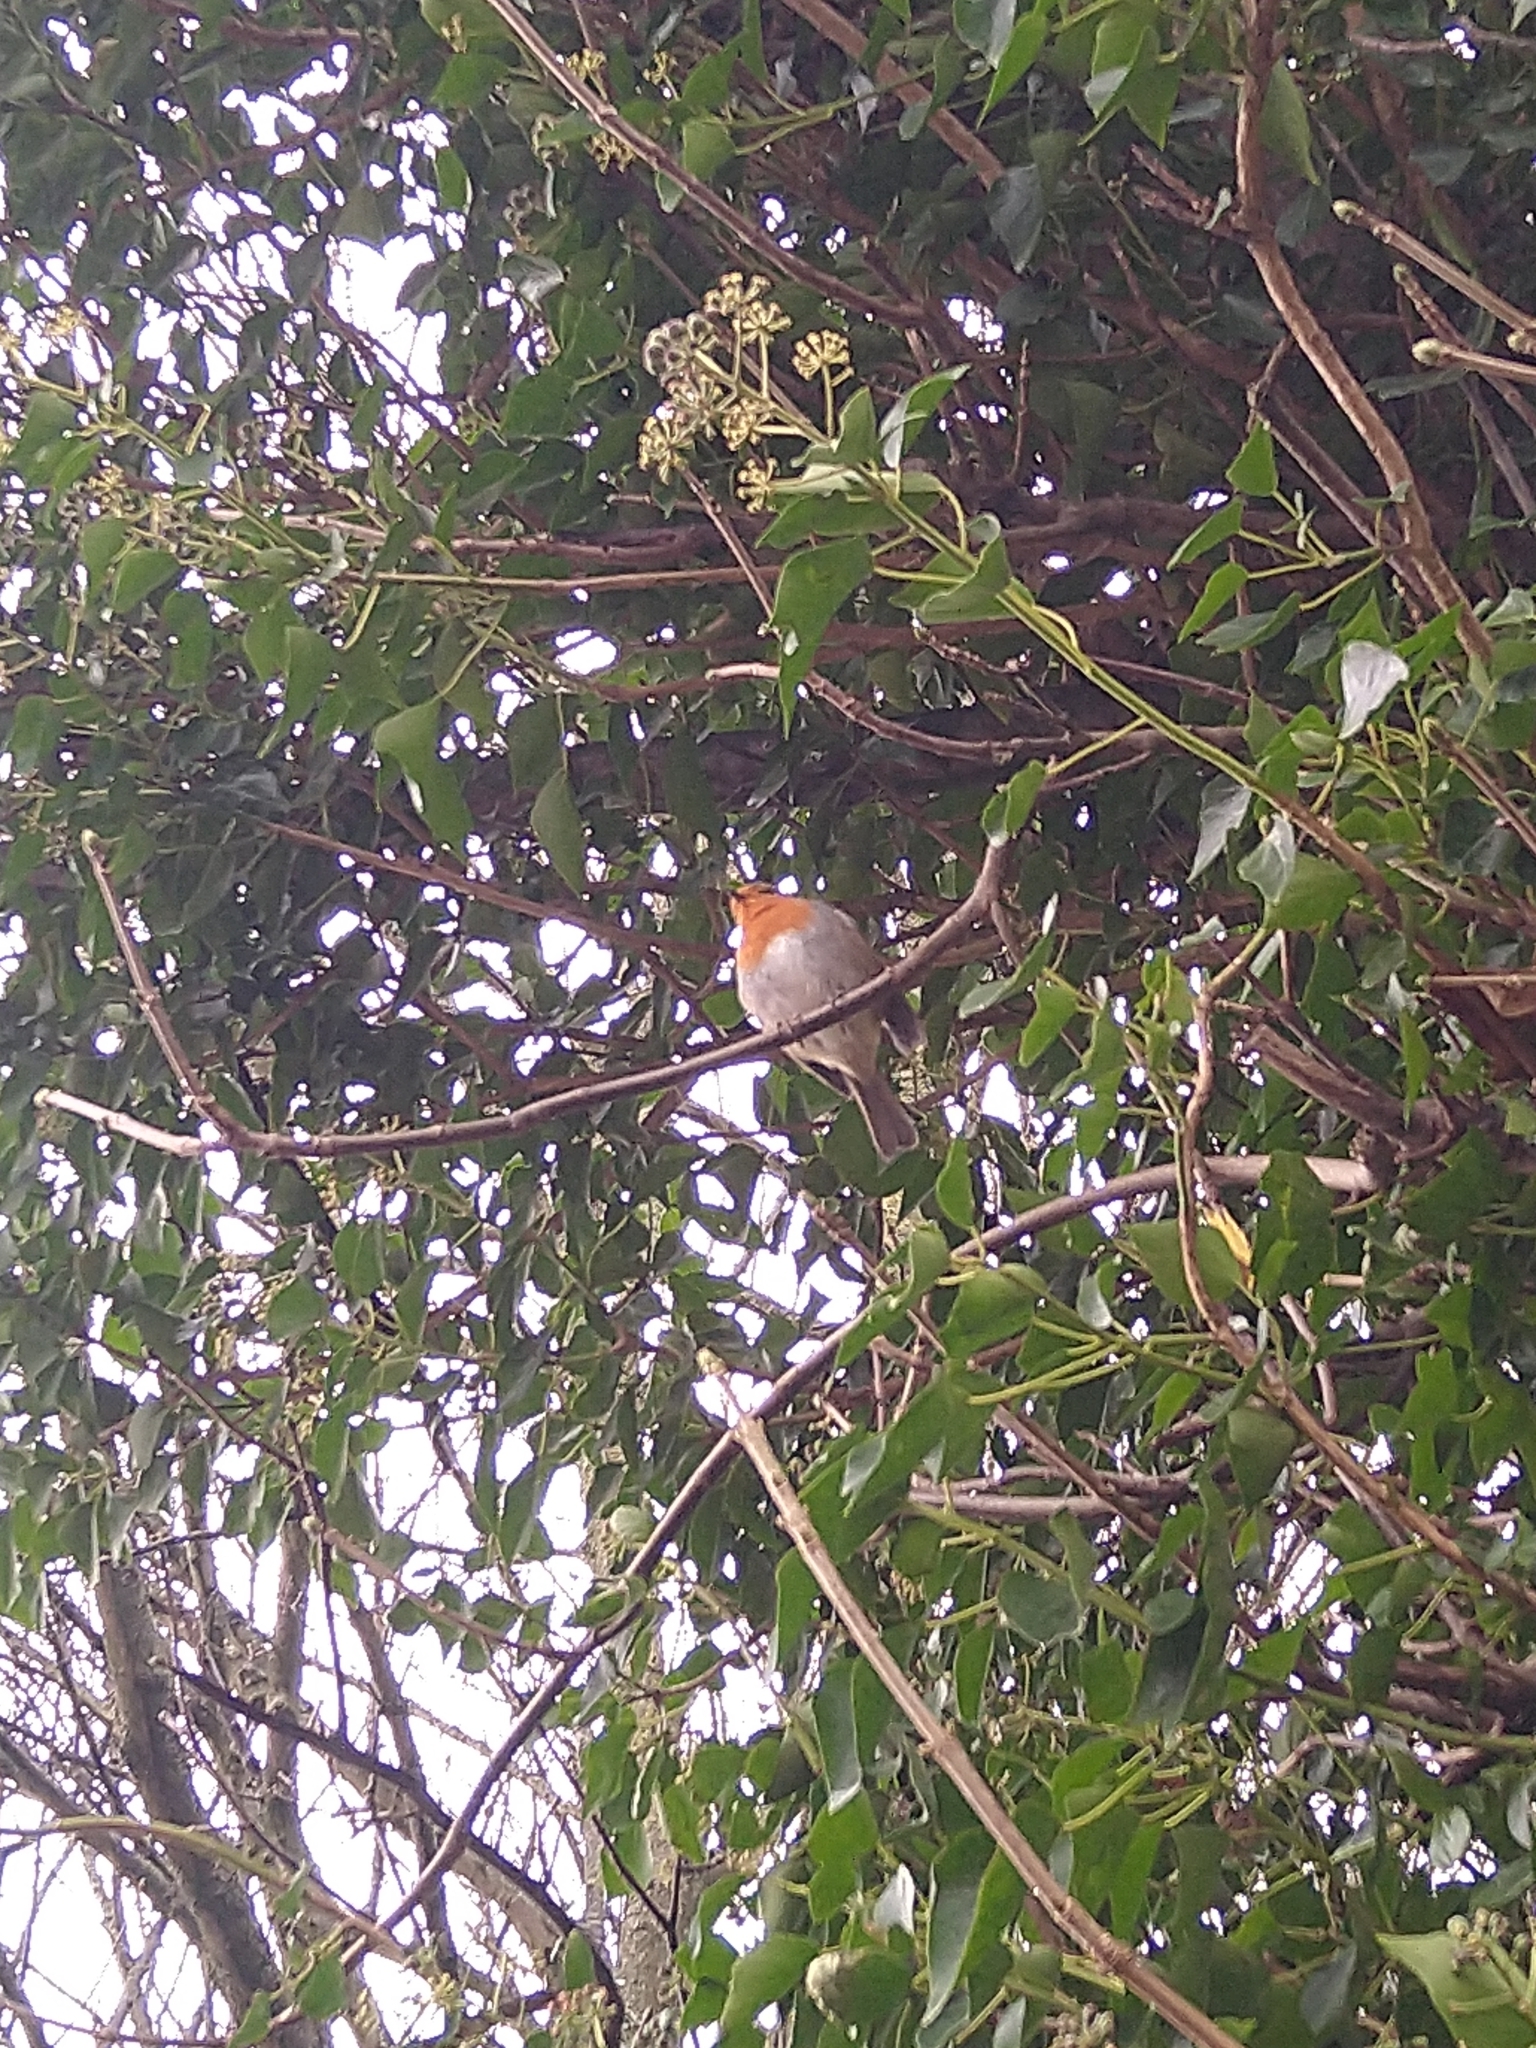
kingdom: Animalia
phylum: Chordata
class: Aves
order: Passeriformes
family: Muscicapidae
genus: Erithacus
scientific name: Erithacus rubecula
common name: European robin
